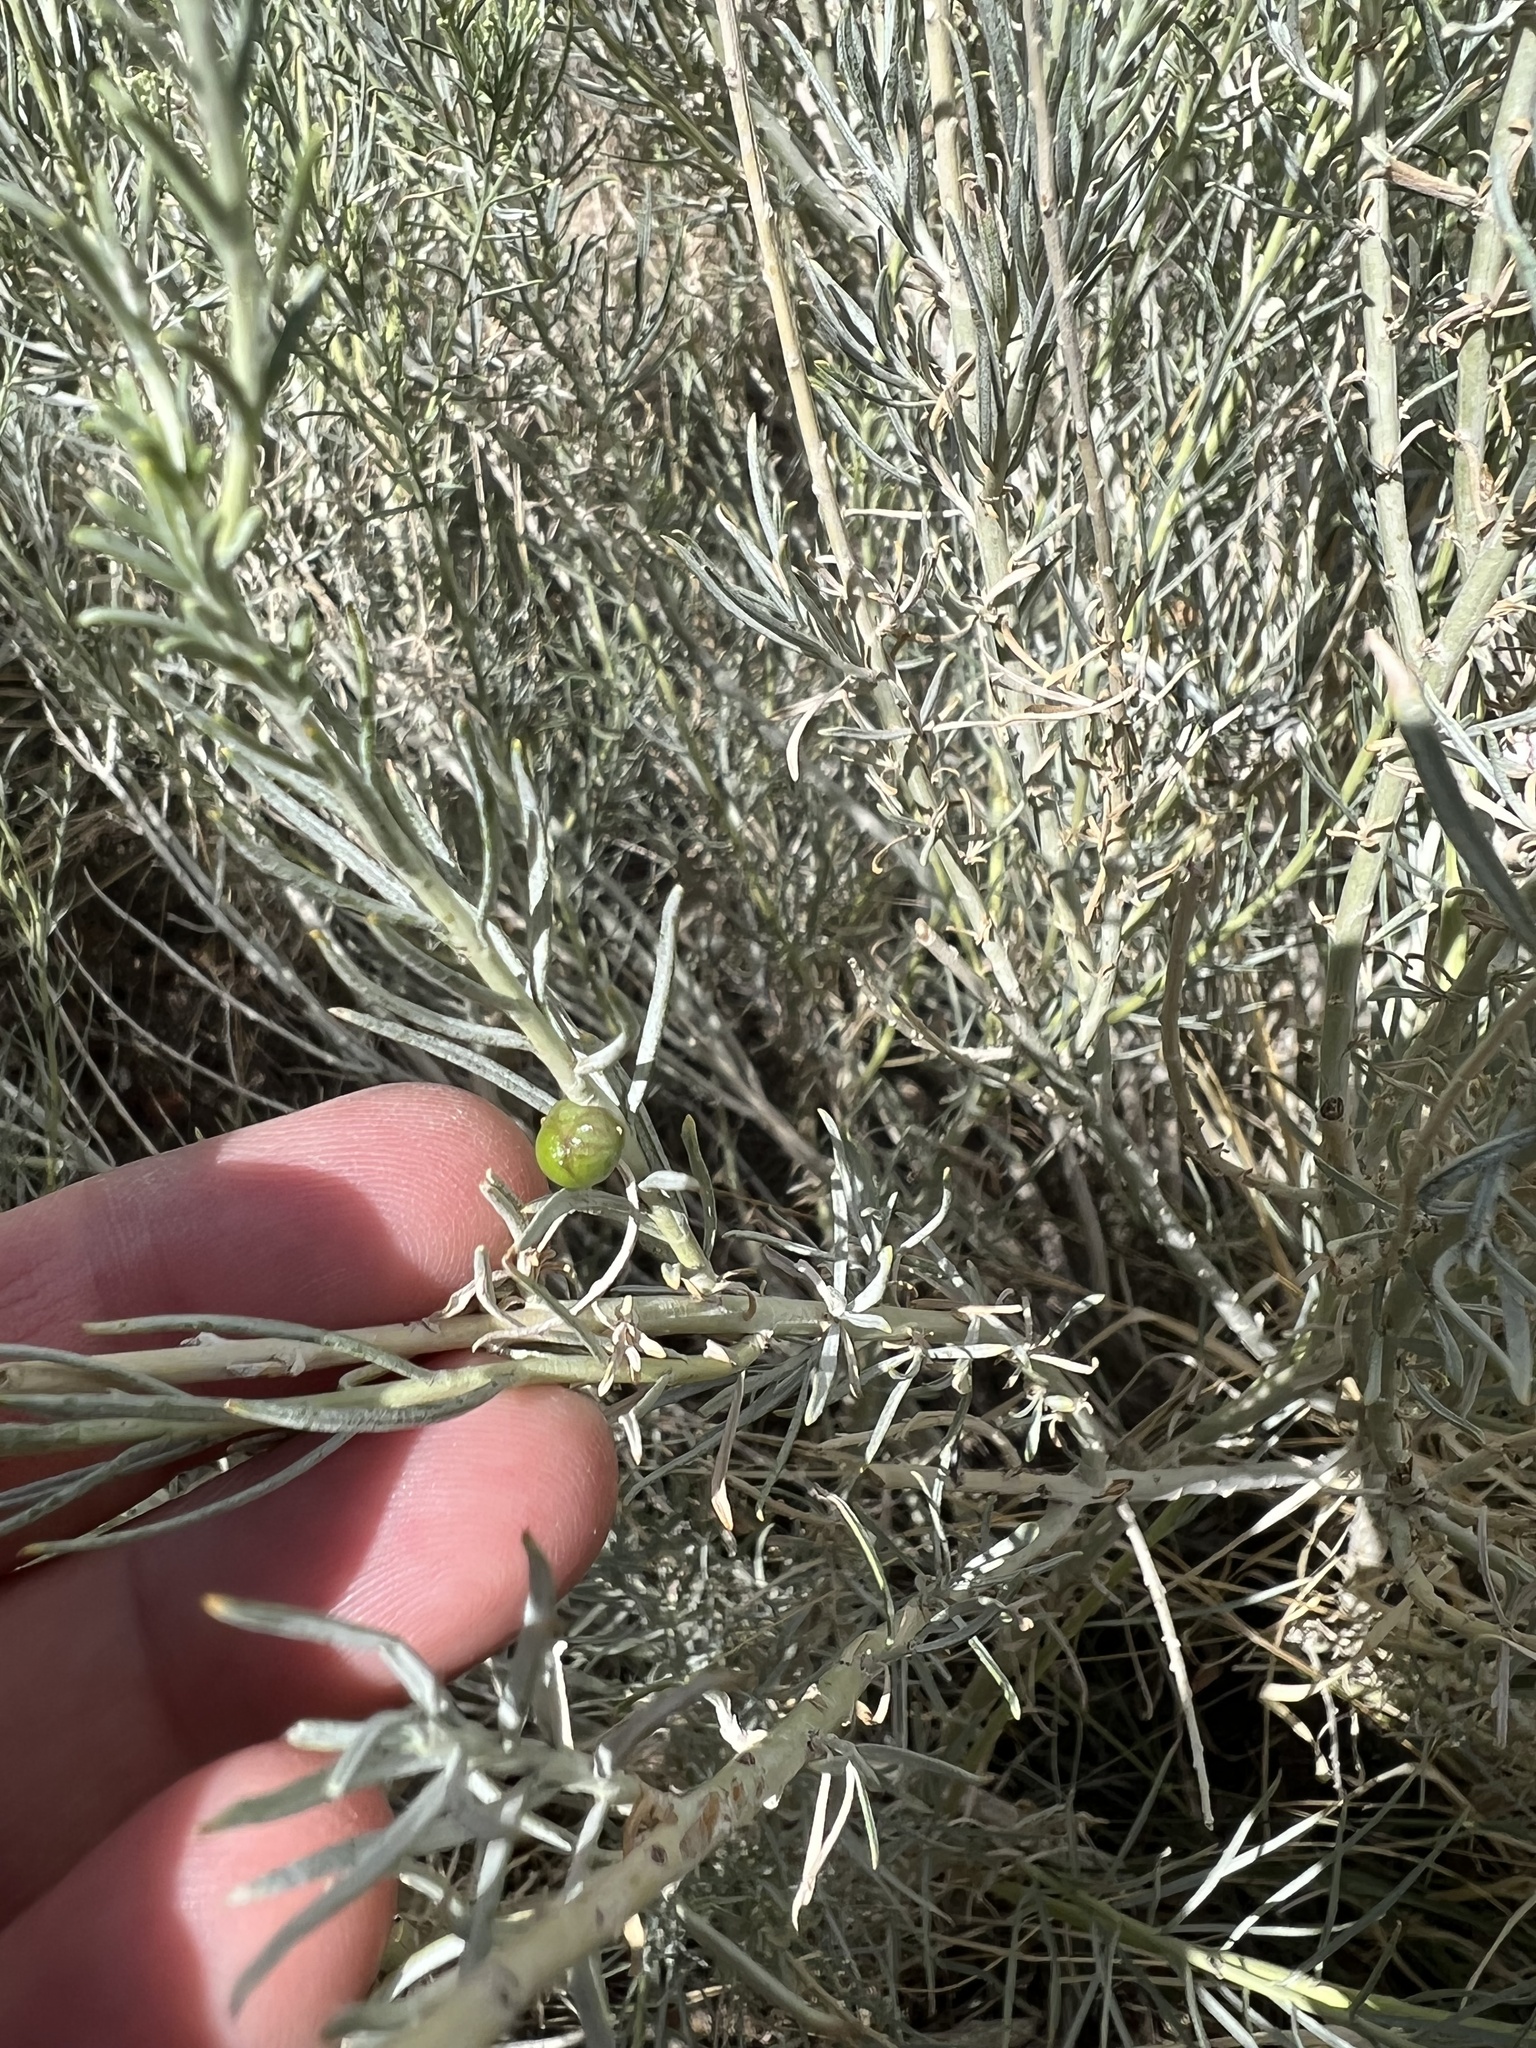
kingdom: Animalia
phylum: Arthropoda
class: Insecta
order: Diptera
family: Tephritidae
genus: Aciurina
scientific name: Aciurina trixa
